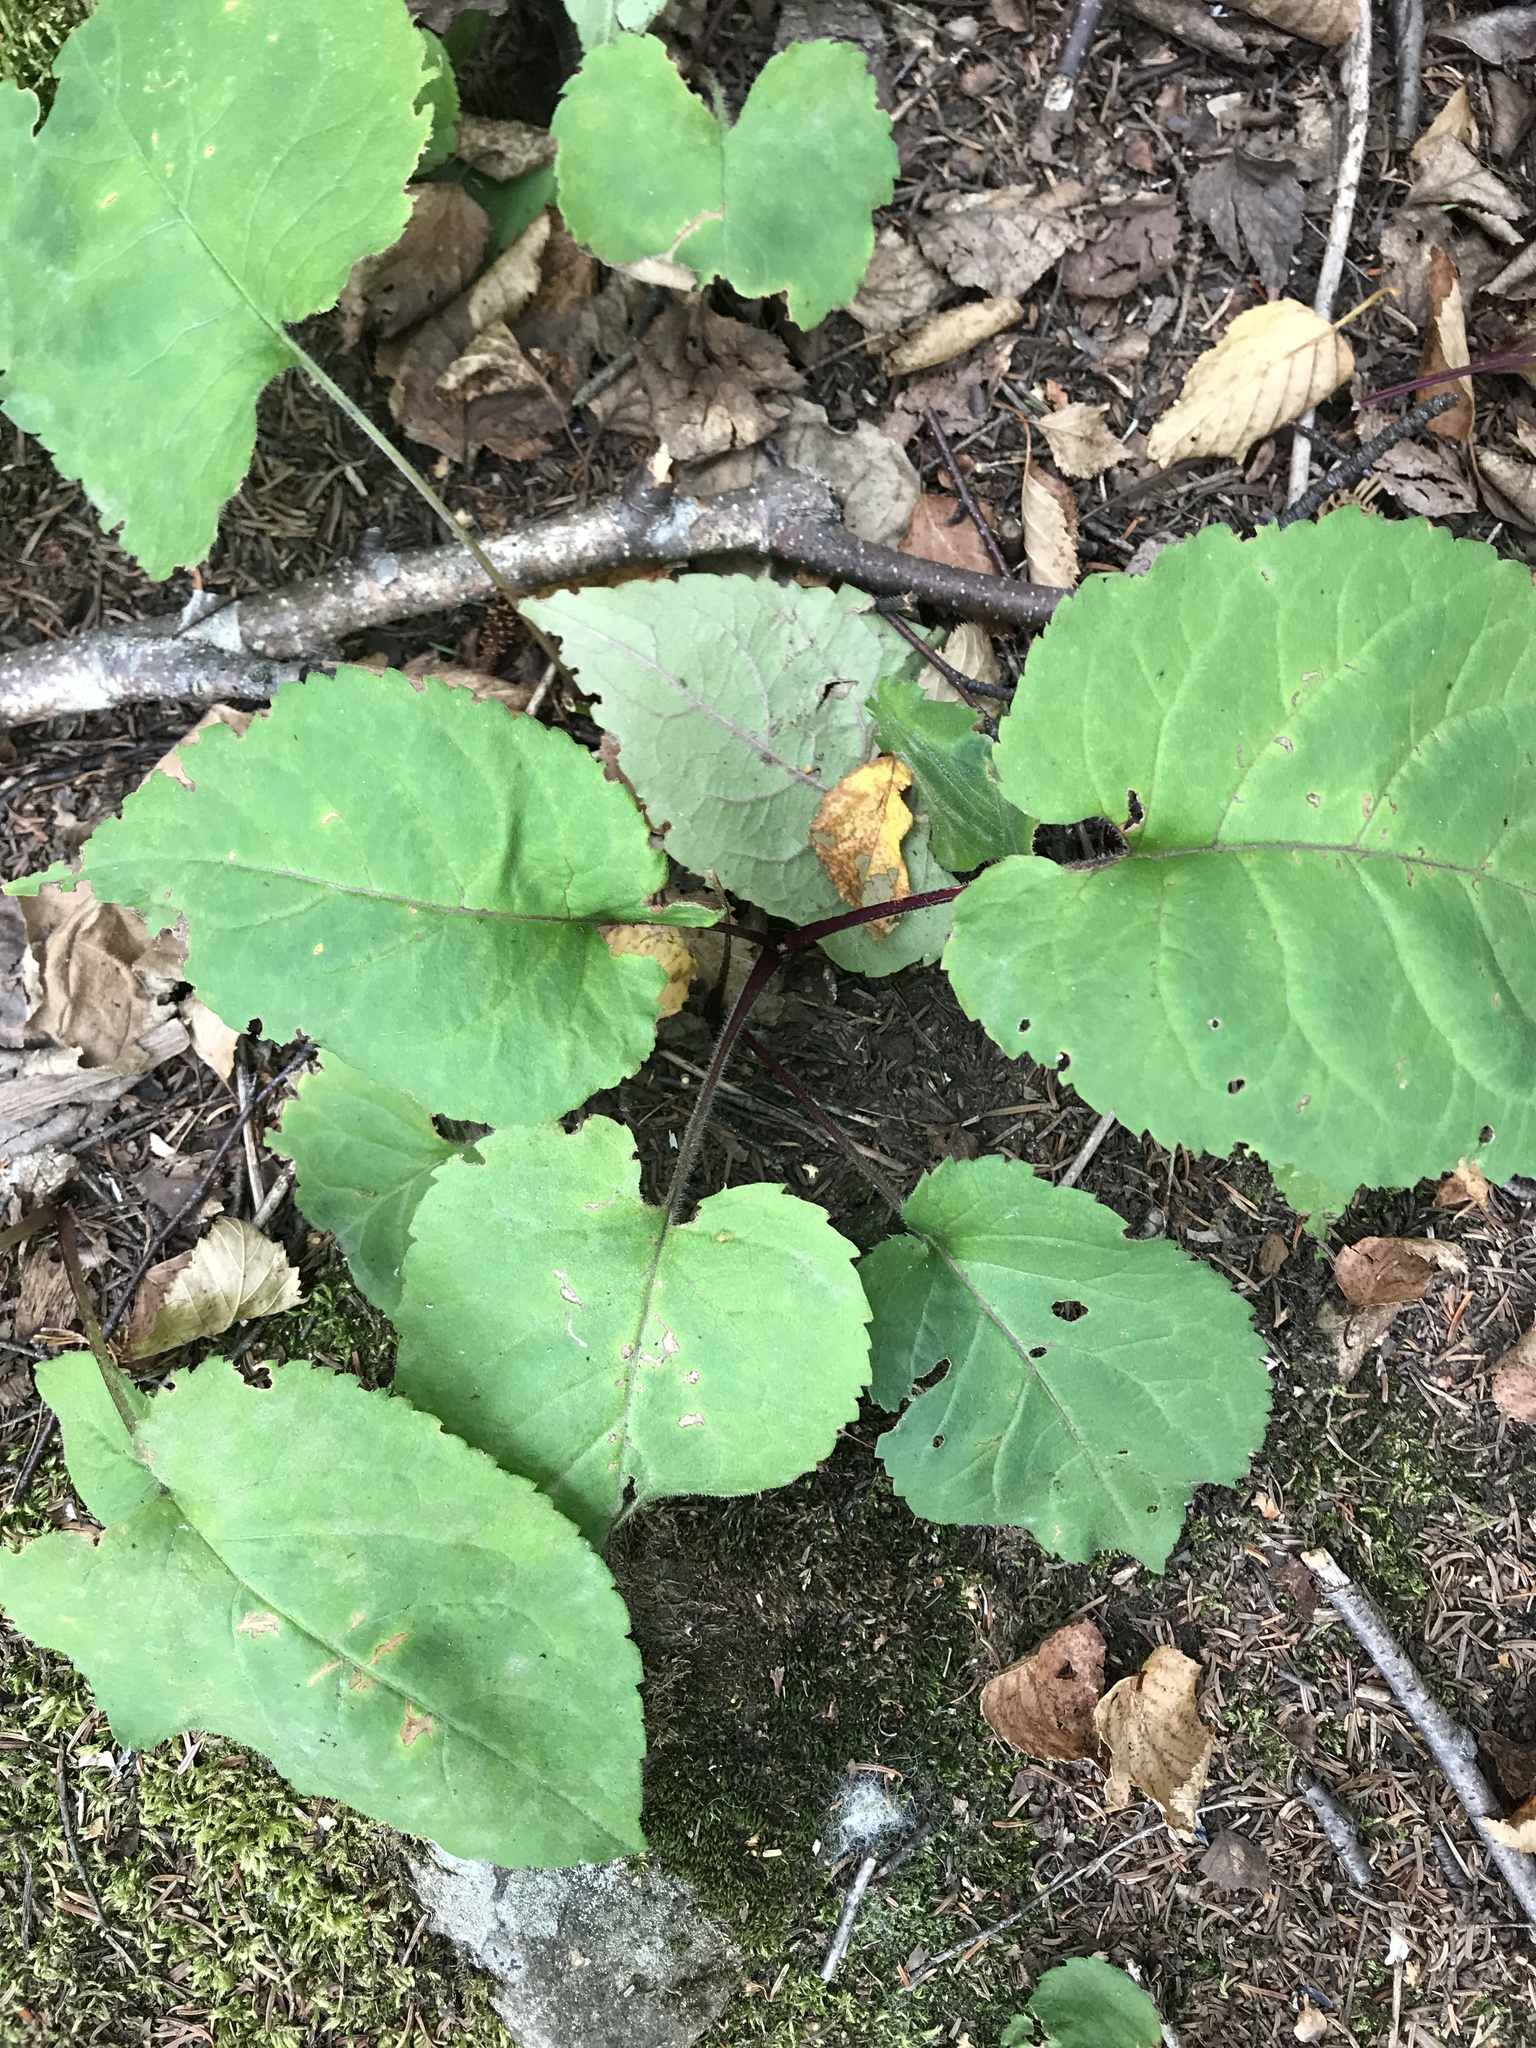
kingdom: Plantae
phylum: Tracheophyta
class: Magnoliopsida
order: Asterales
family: Asteraceae
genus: Eurybia
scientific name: Eurybia macrophylla
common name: Big-leaved aster
